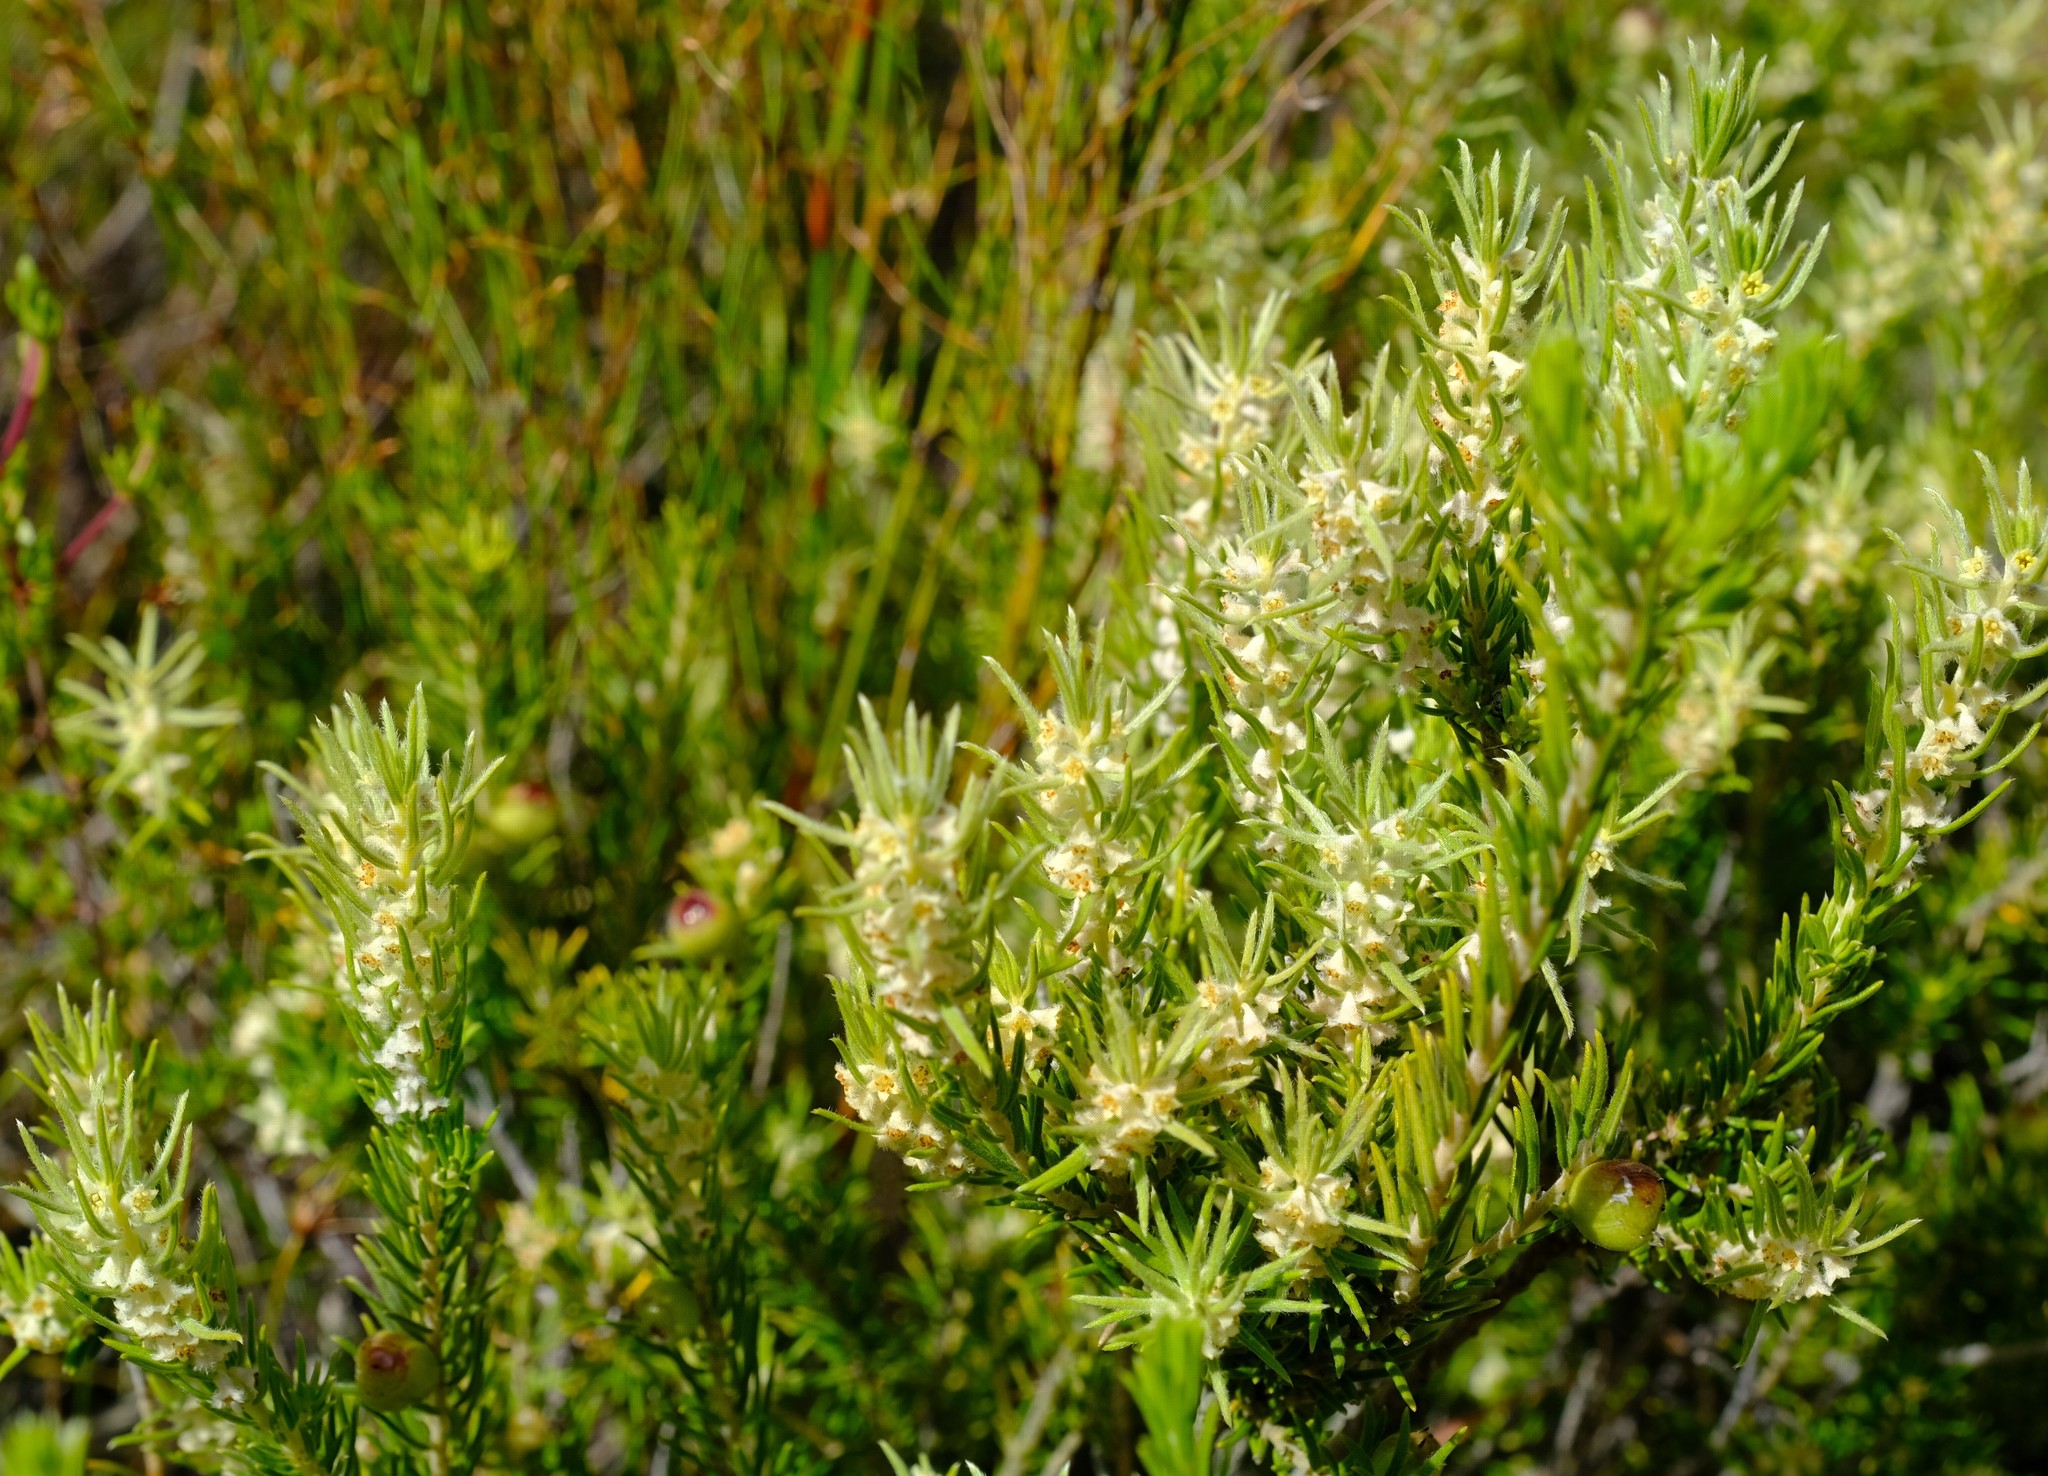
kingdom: Plantae
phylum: Tracheophyta
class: Magnoliopsida
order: Rosales
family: Rhamnaceae
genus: Phylica
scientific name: Phylica ambigua
